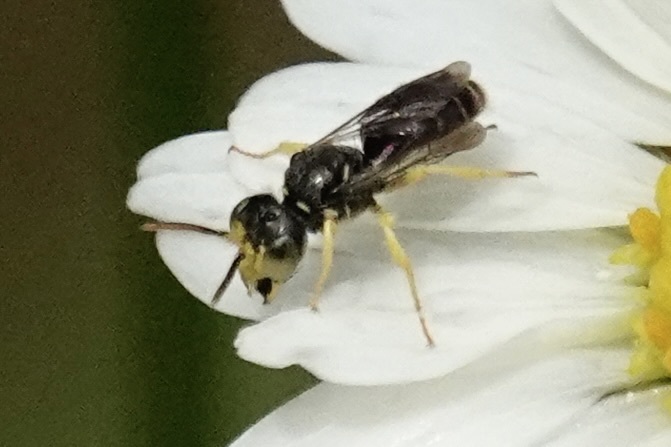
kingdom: Animalia
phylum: Arthropoda
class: Insecta
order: Hymenoptera
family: Andrenidae
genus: Calliopsis
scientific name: Calliopsis andreniformis
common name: Eastern calliopsis bee
